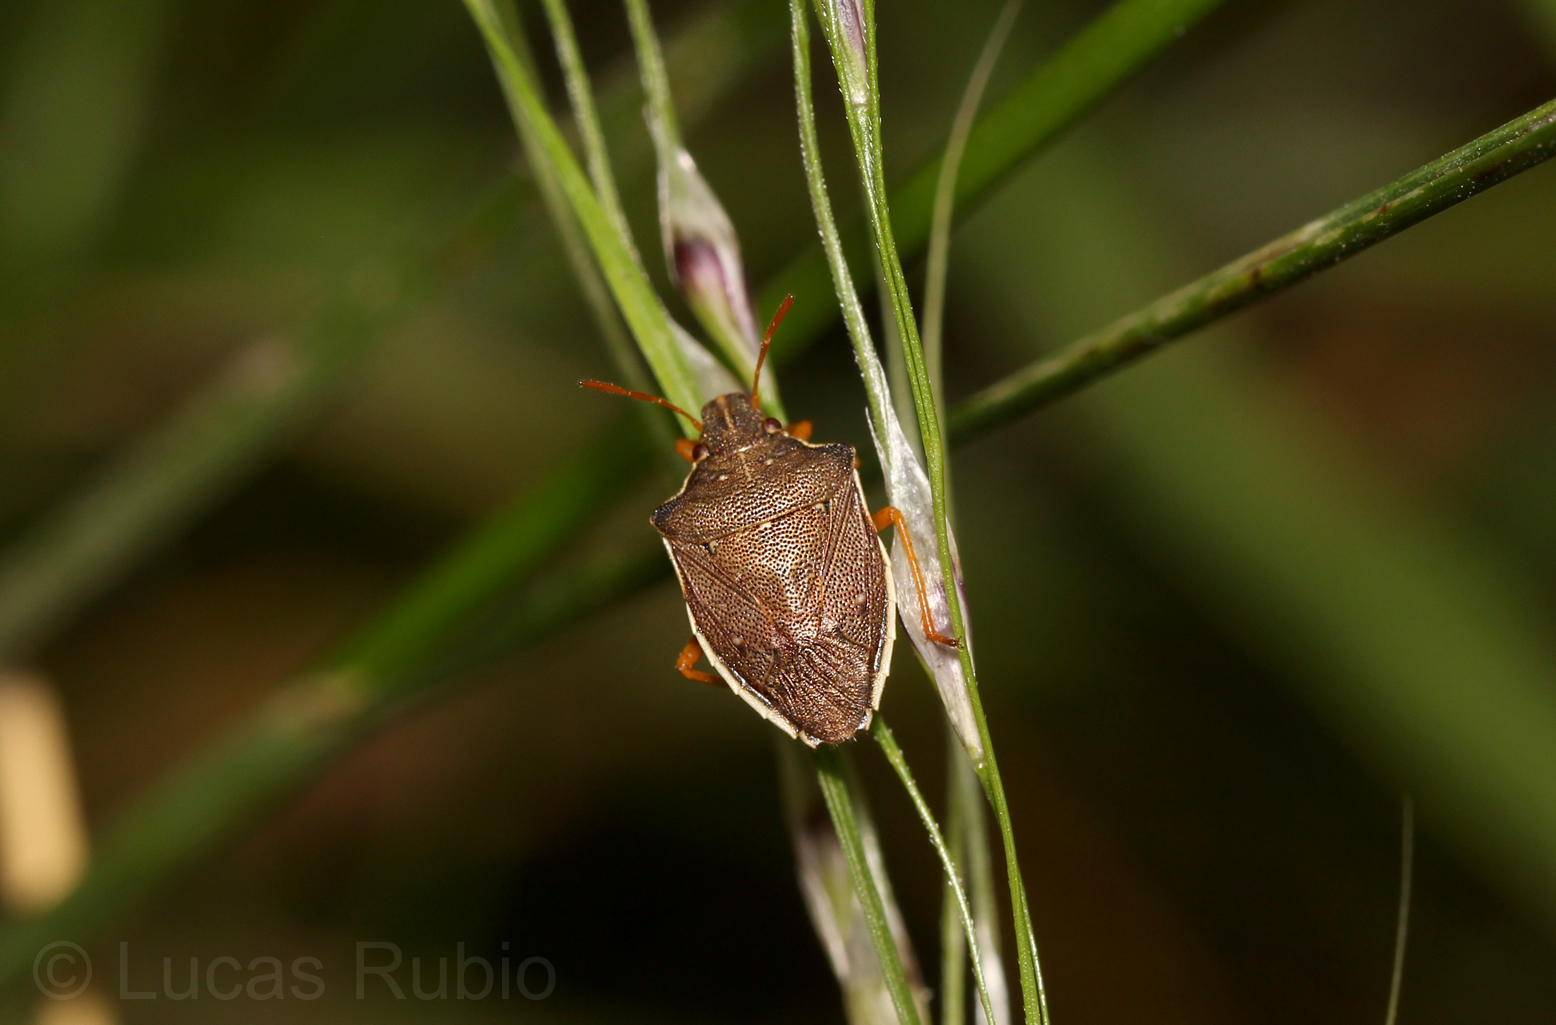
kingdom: Animalia
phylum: Arthropoda
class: Insecta
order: Hemiptera
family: Pentatomidae
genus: Mormidea
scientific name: Mormidea
